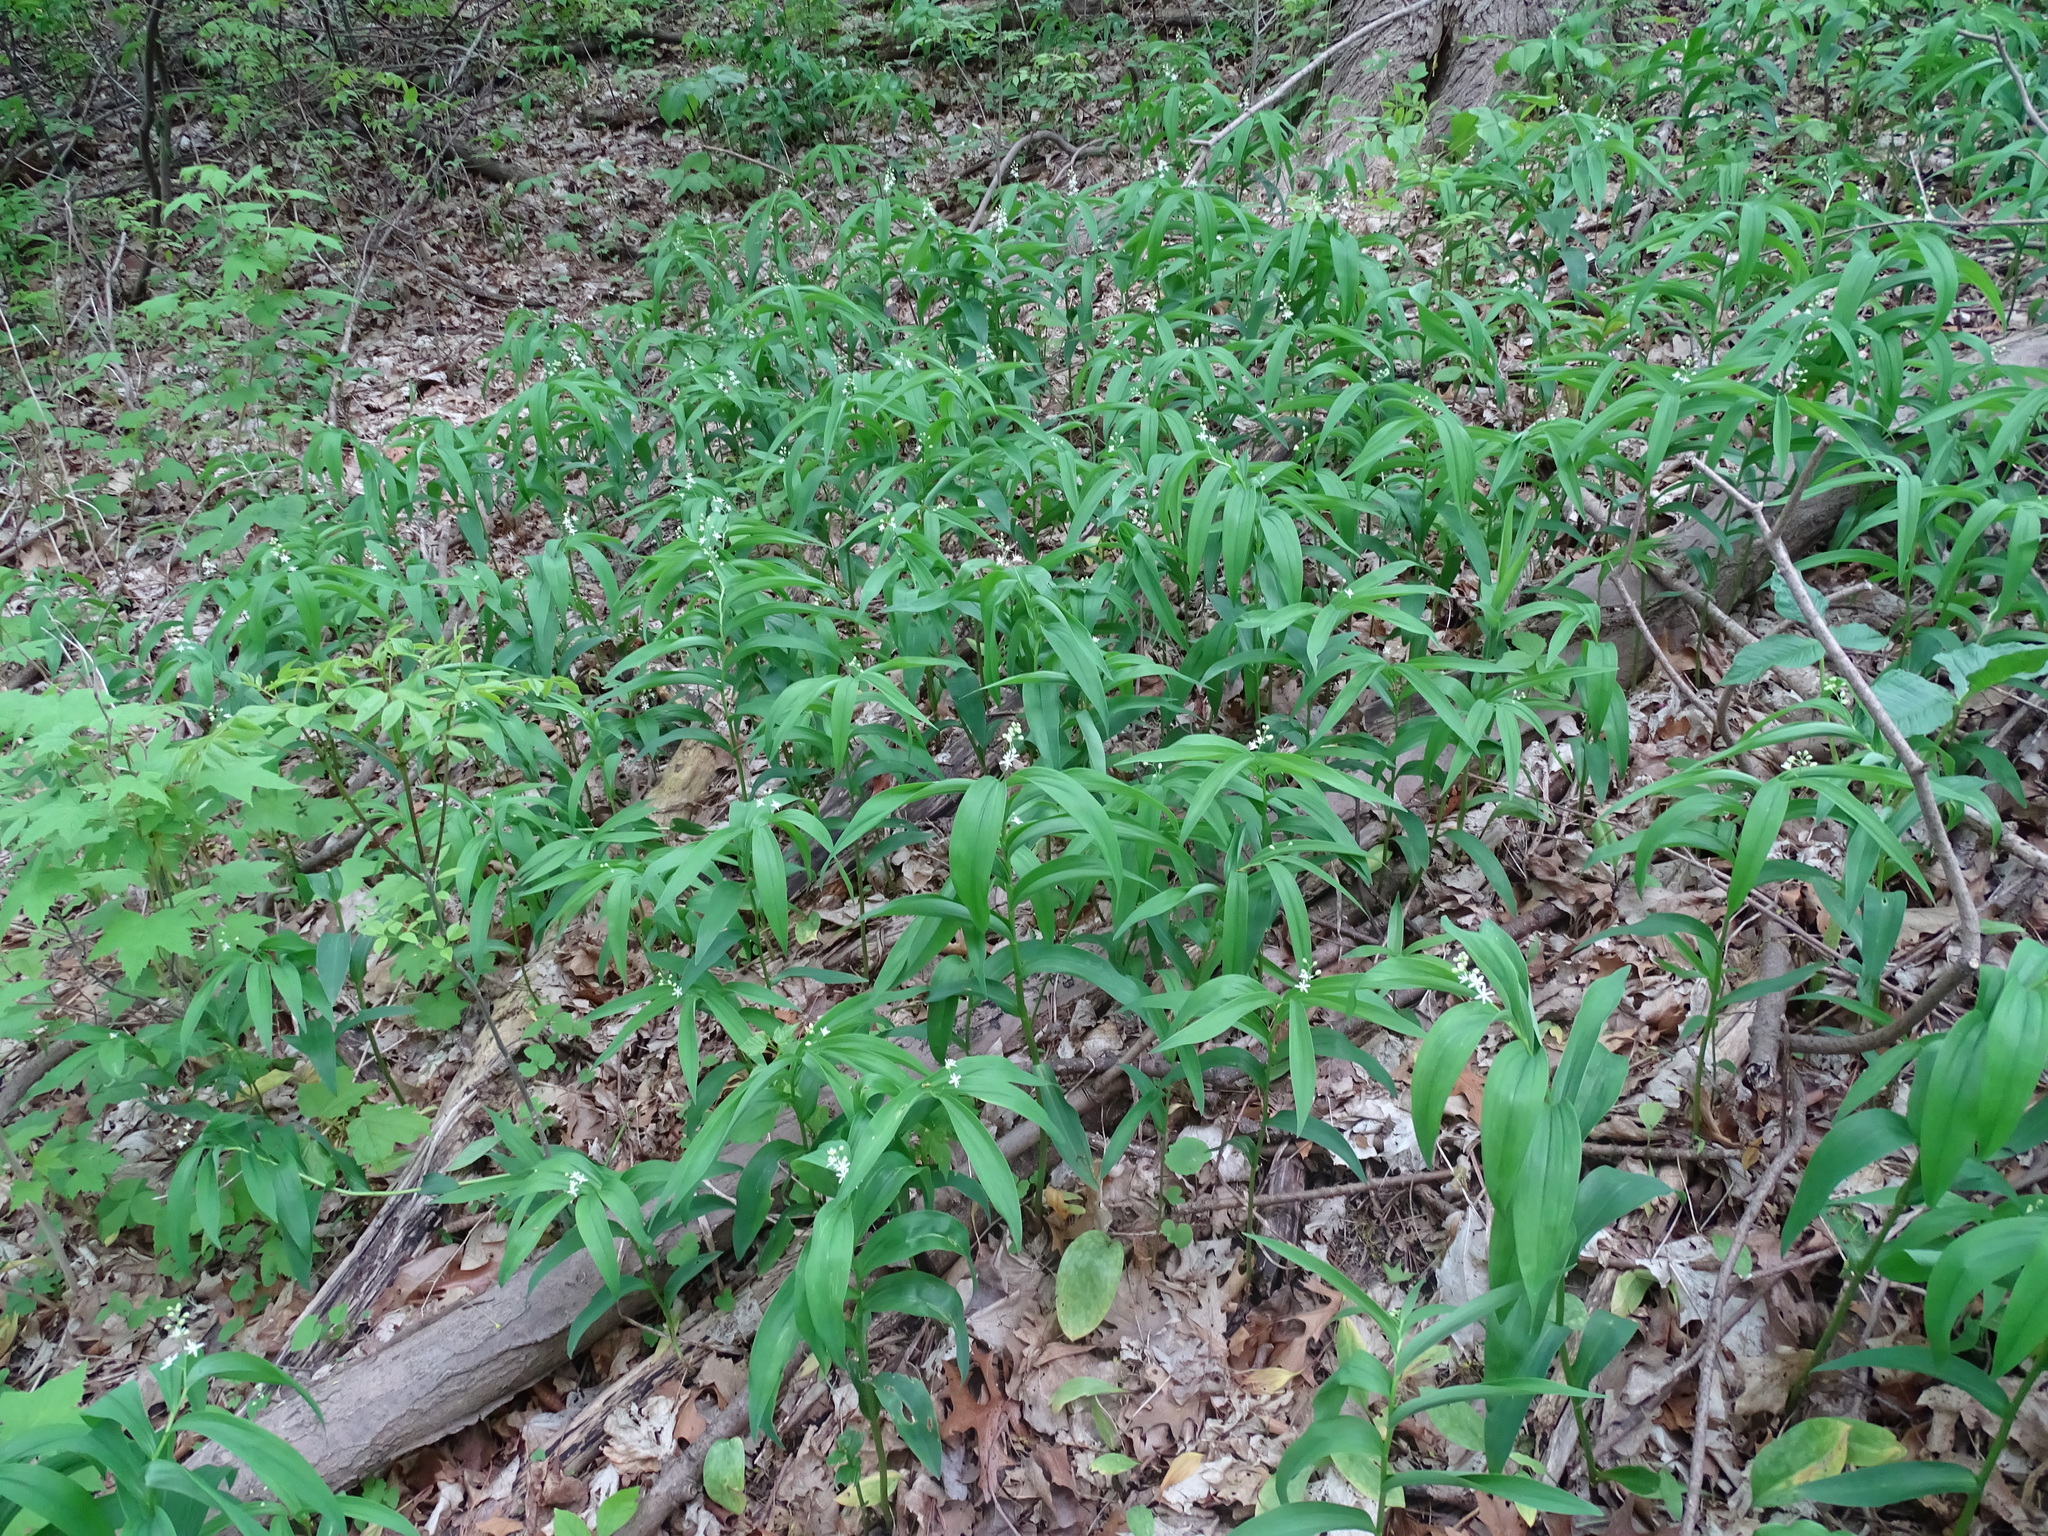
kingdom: Plantae
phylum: Tracheophyta
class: Liliopsida
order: Asparagales
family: Asparagaceae
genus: Maianthemum
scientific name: Maianthemum stellatum
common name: Little false solomon's seal
